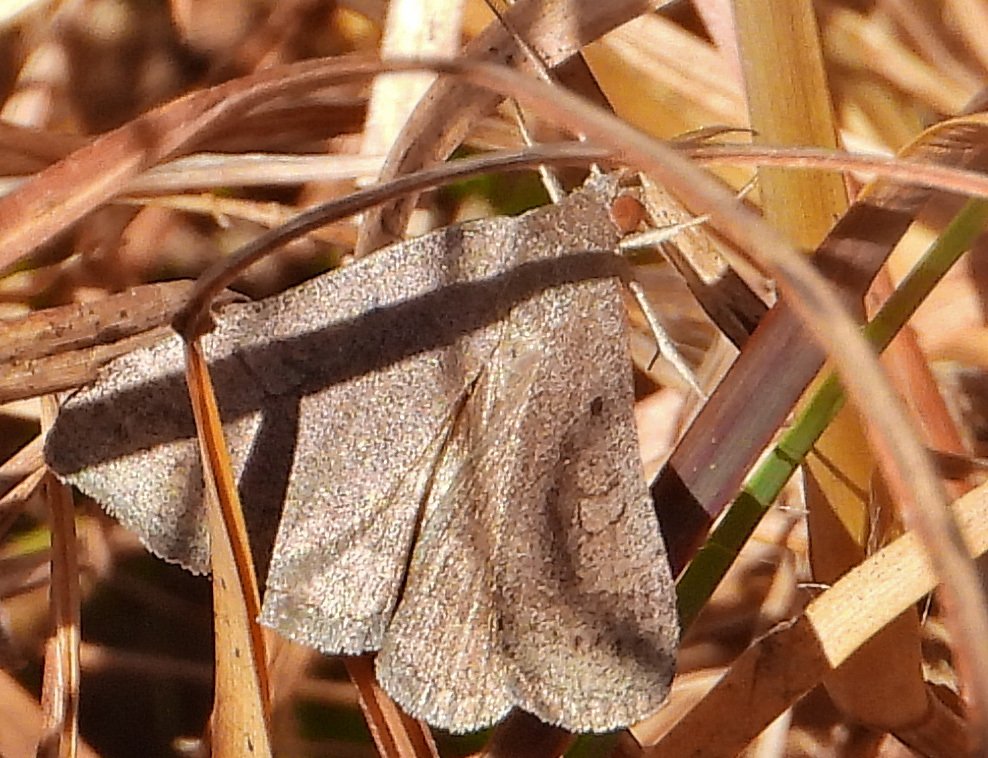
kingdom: Animalia
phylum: Arthropoda
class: Insecta
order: Lepidoptera
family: Erebidae
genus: Caenurgia
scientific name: Caenurgia chloropha
